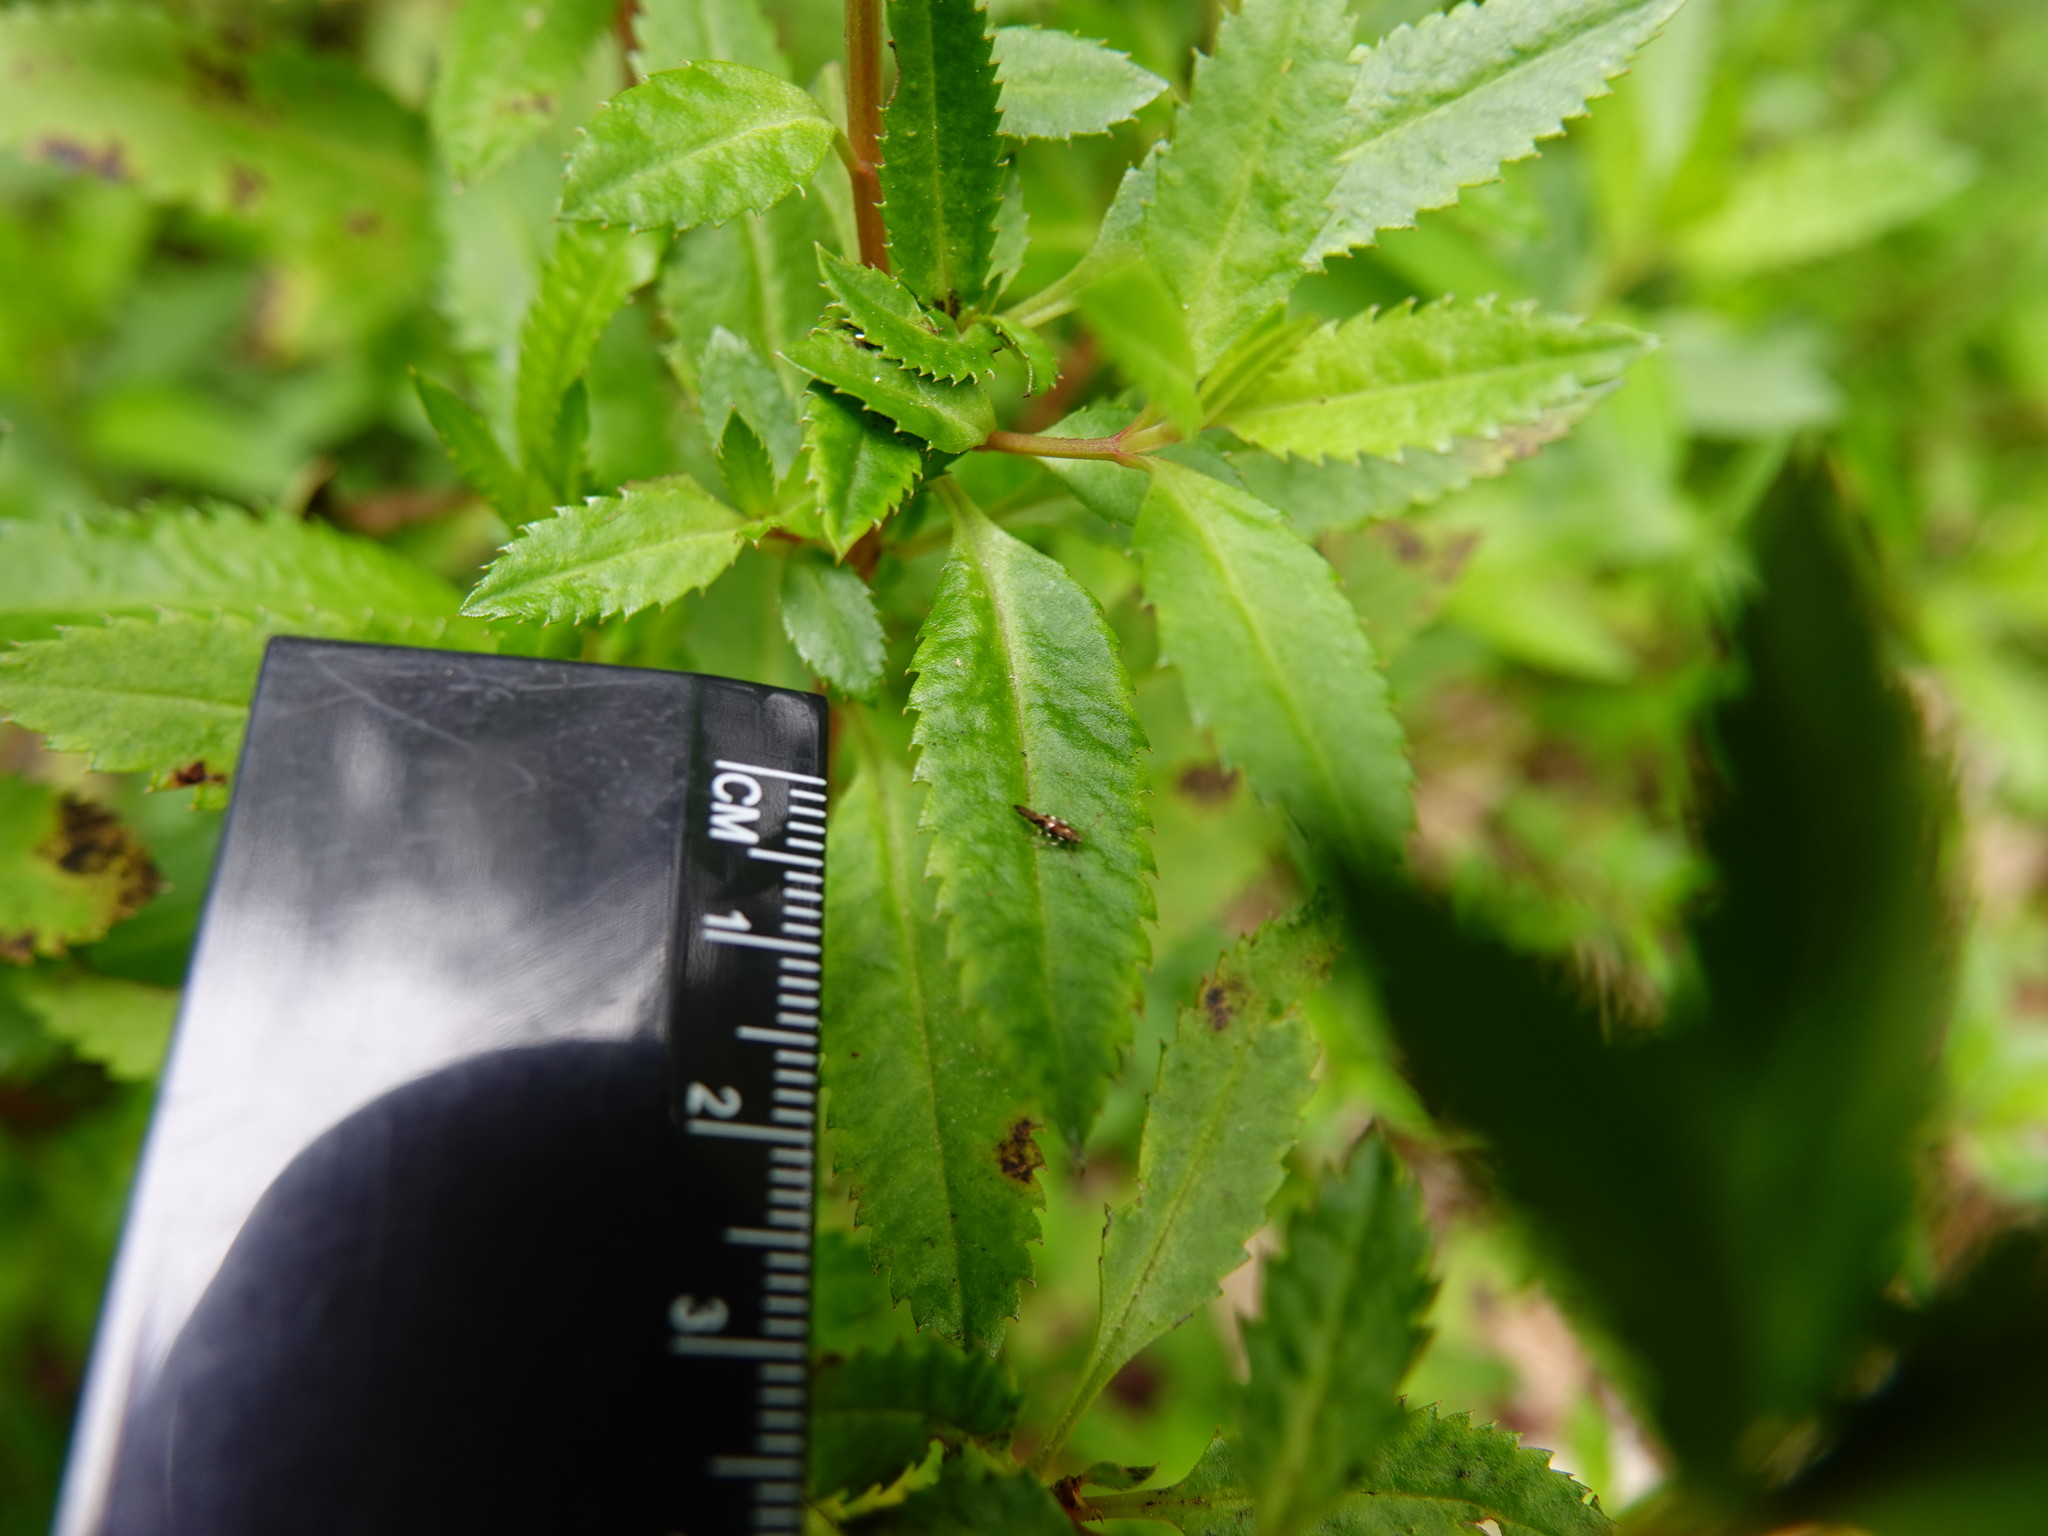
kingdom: Animalia
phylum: Arthropoda
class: Insecta
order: Lepidoptera
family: Momphidae
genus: Zapyrastra
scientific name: Zapyrastra calliphana
